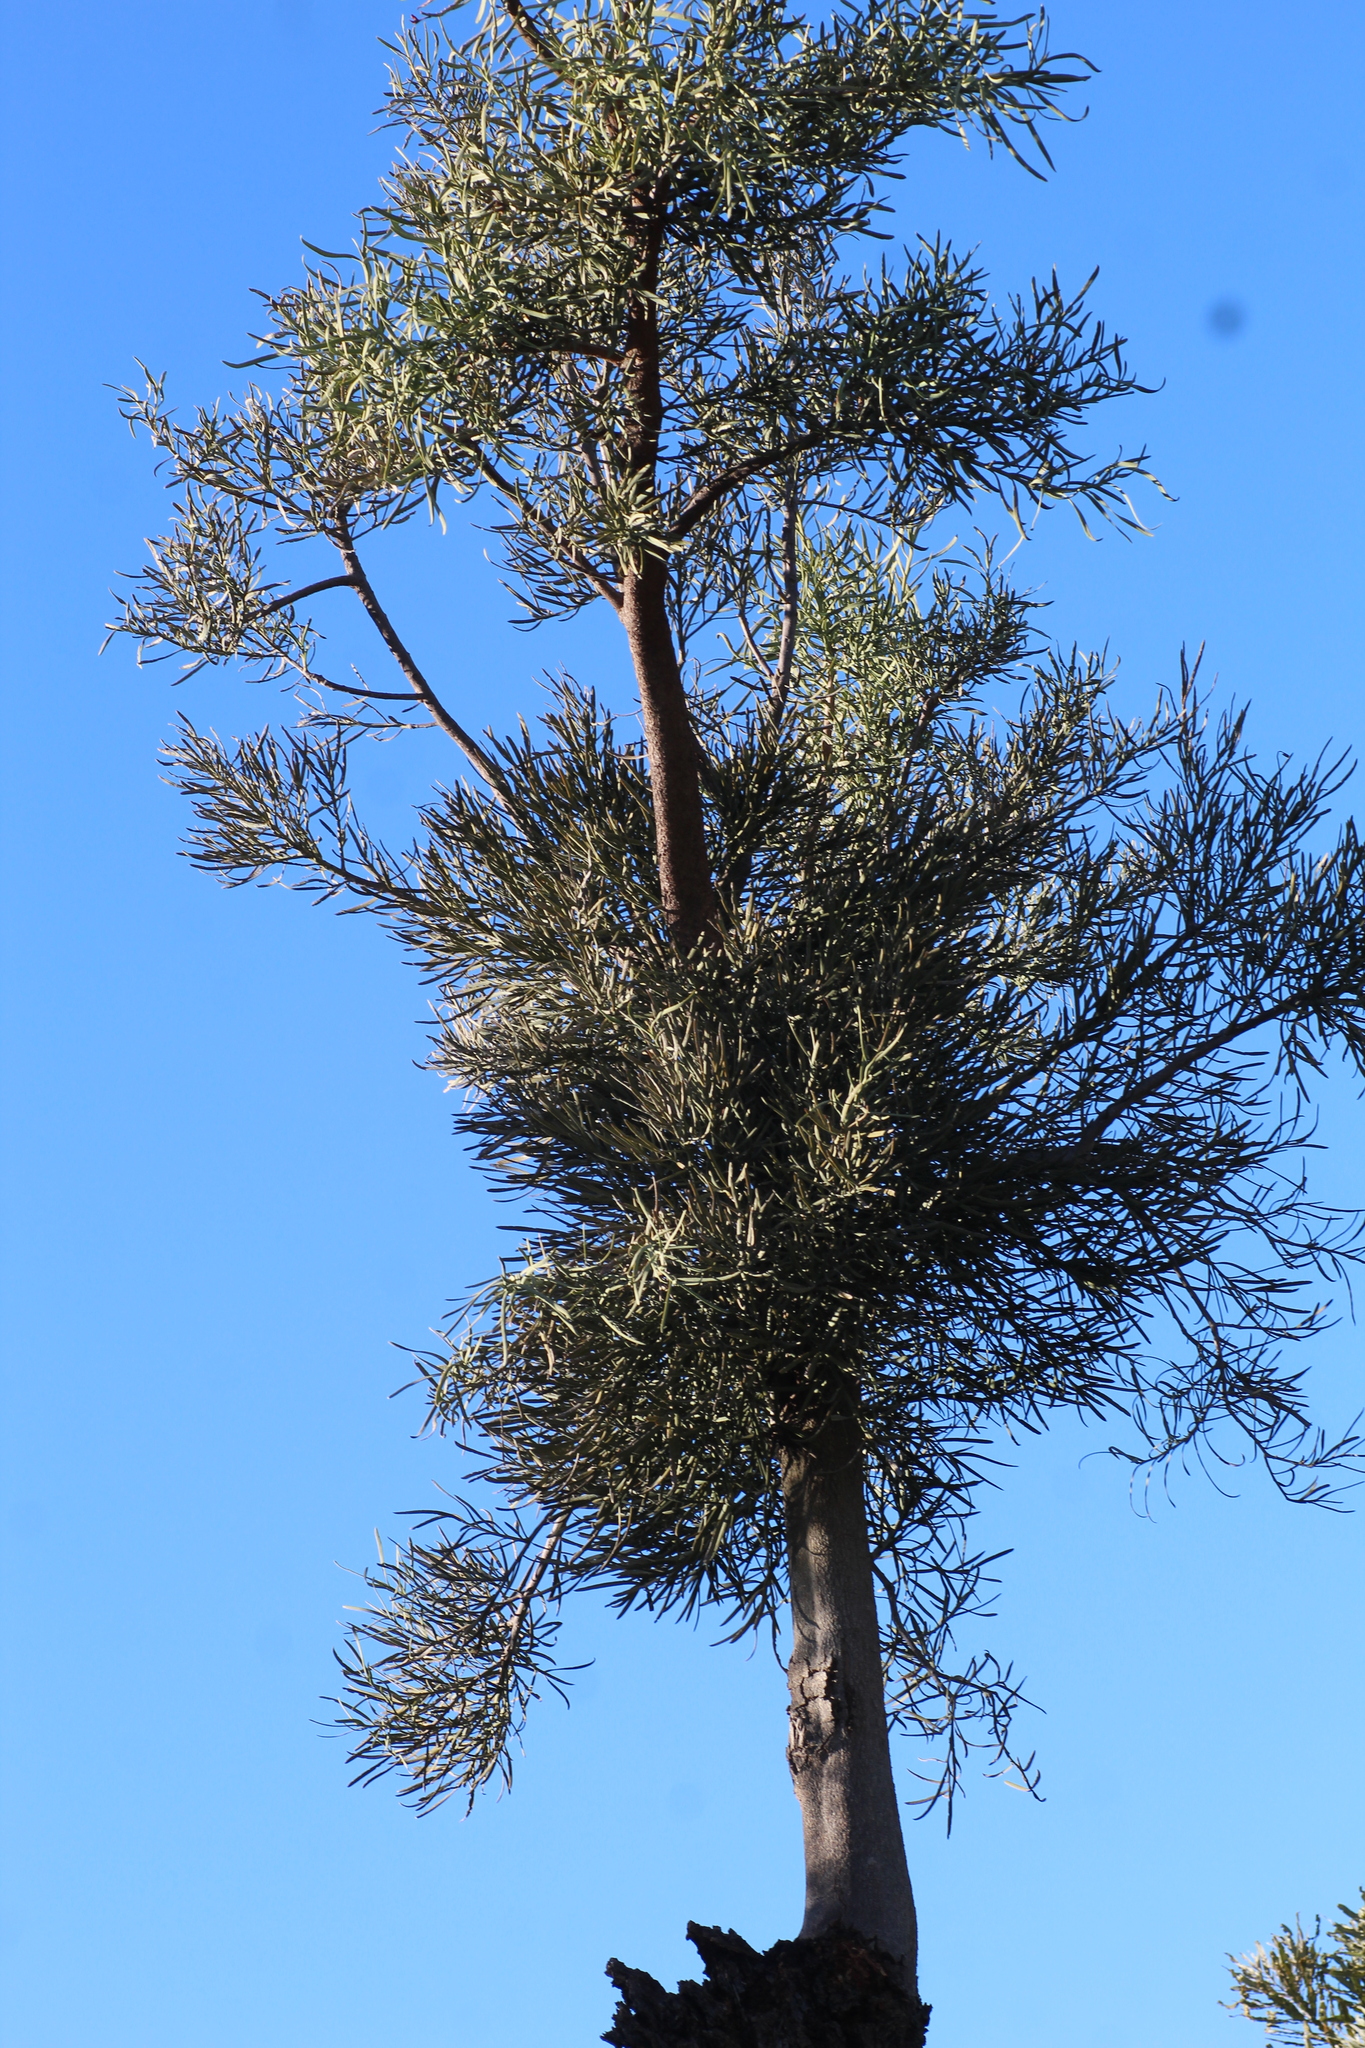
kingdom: Plantae
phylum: Tracheophyta
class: Magnoliopsida
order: Santalales
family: Loranthaceae
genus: Nuytsia
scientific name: Nuytsia floribunda
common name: Western australian christmastree
